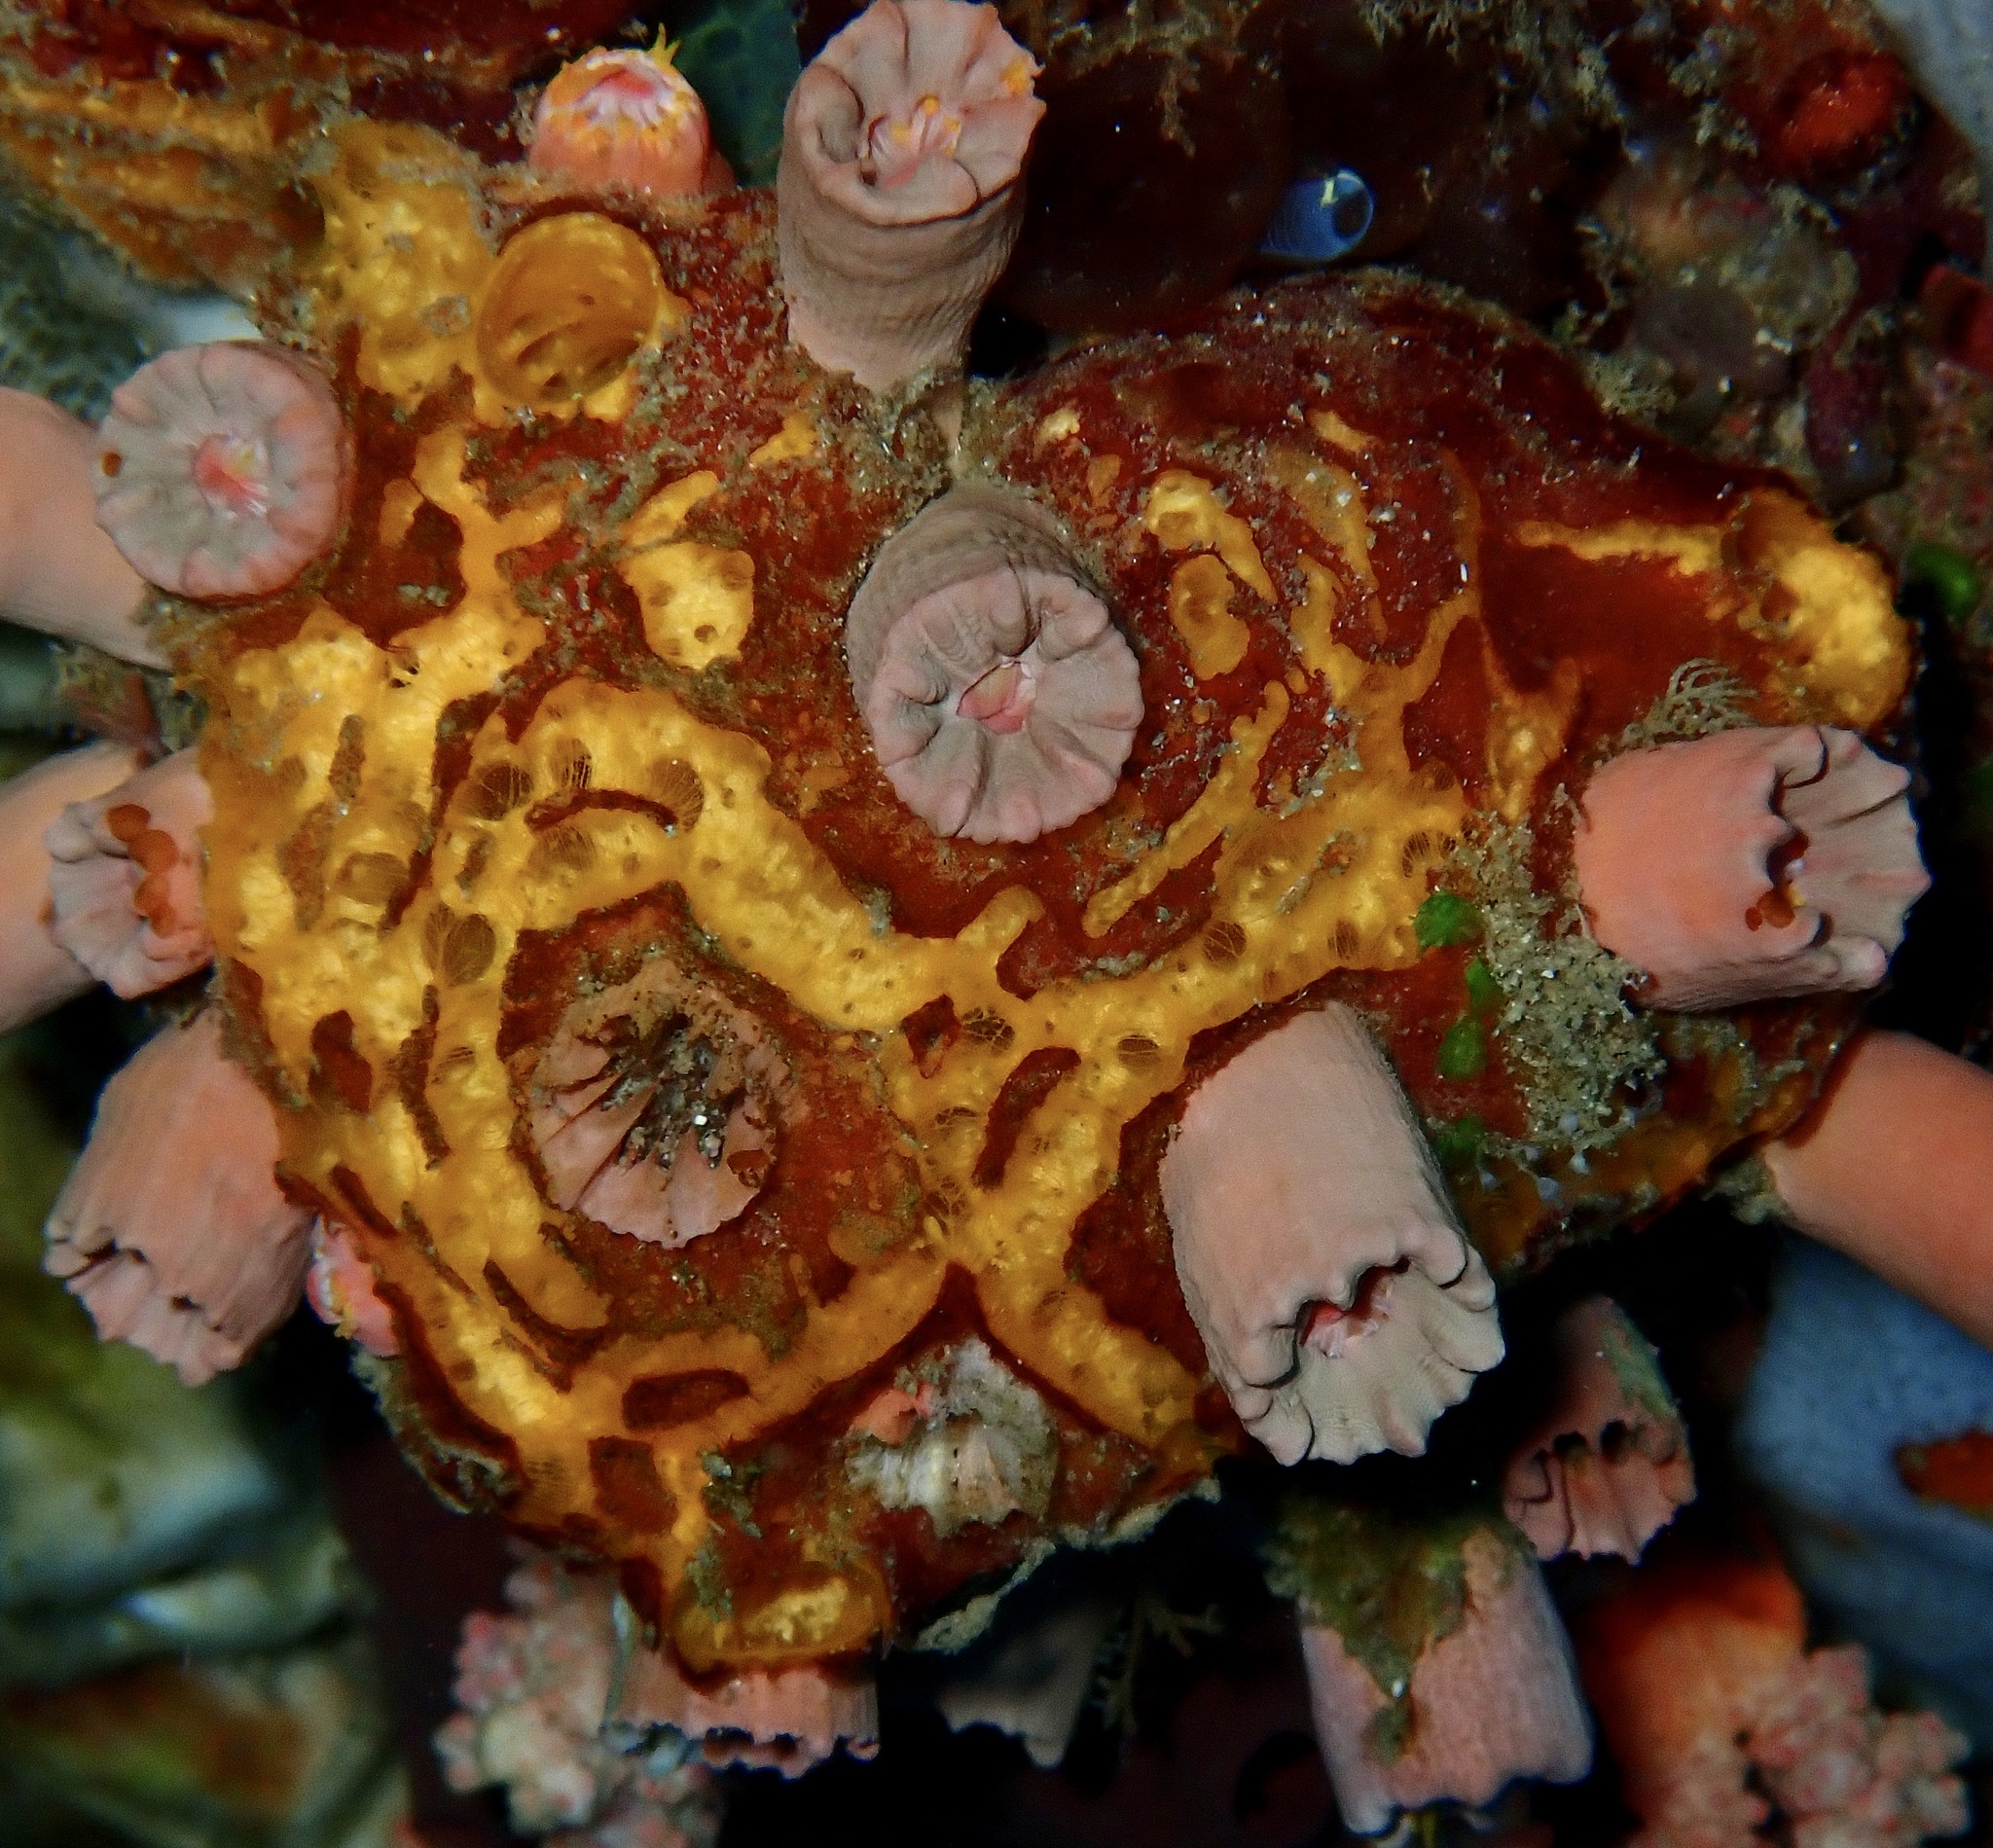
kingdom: Animalia
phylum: Porifera
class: Demospongiae
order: Axinellida
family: Heteroxyidae
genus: Myrmekioderma
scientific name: Myrmekioderma granulatum
